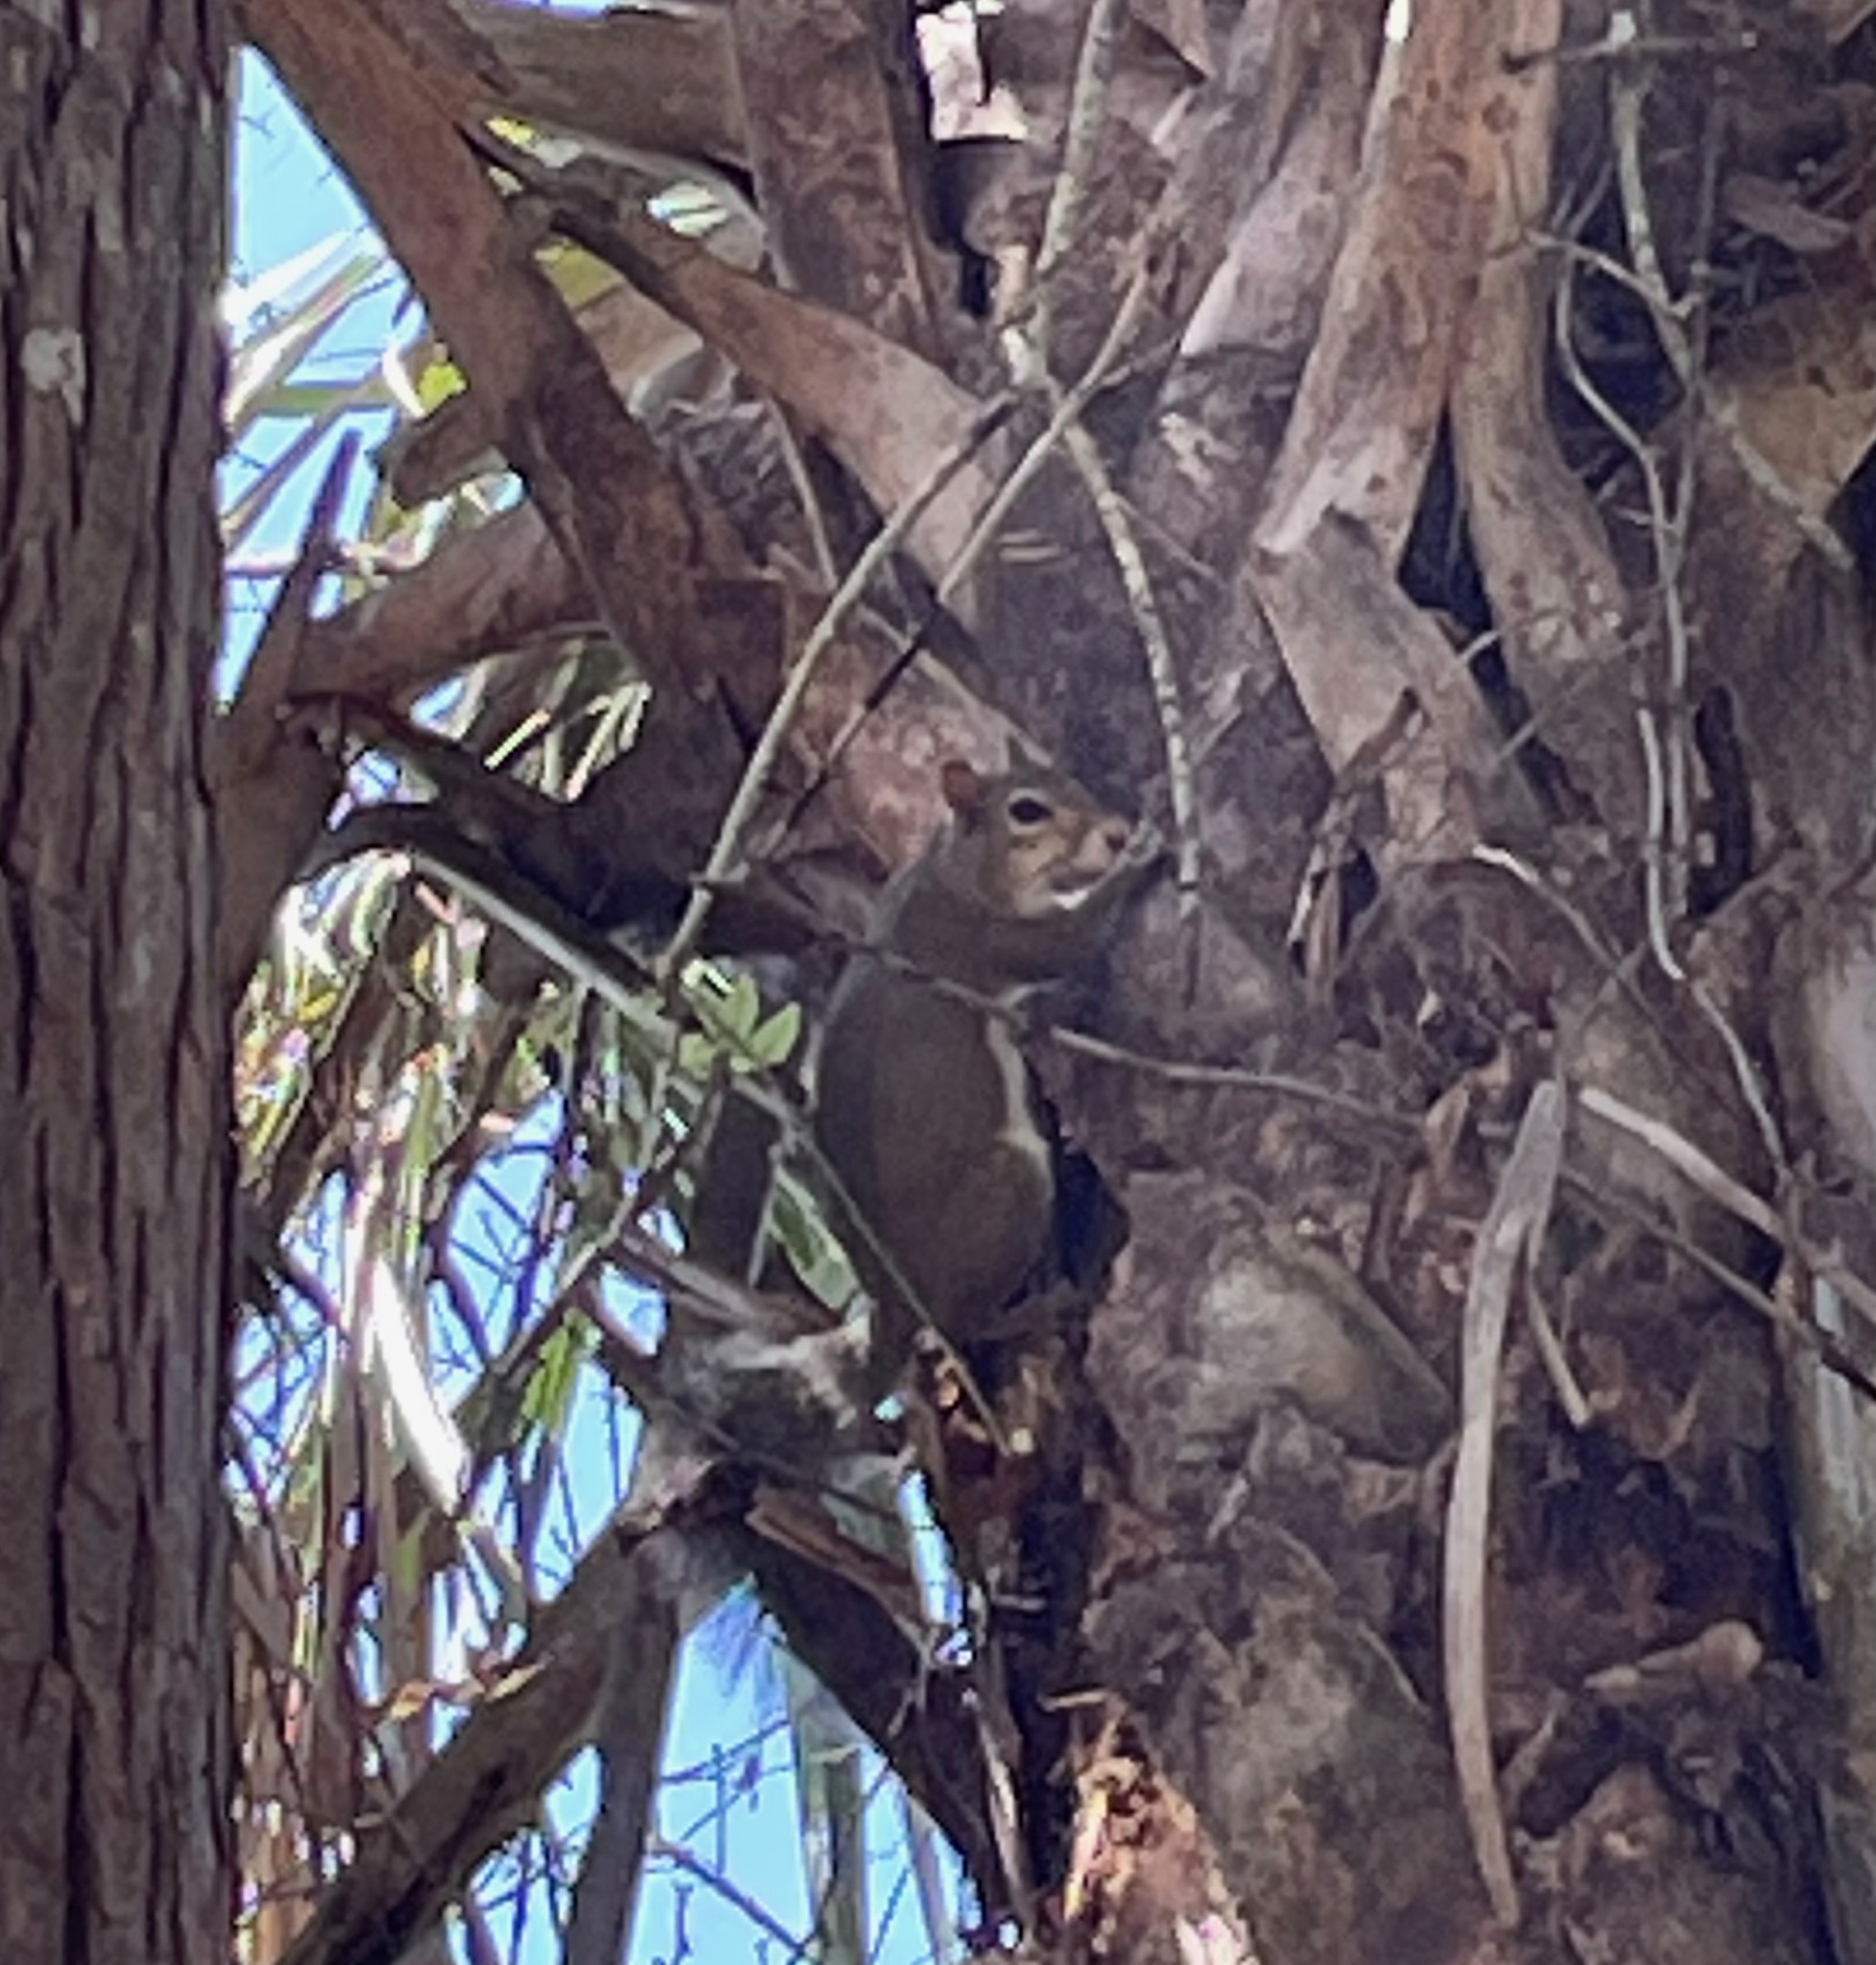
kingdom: Animalia
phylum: Chordata
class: Mammalia
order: Rodentia
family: Sciuridae
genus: Sciurus
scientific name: Sciurus carolinensis
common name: Eastern gray squirrel
